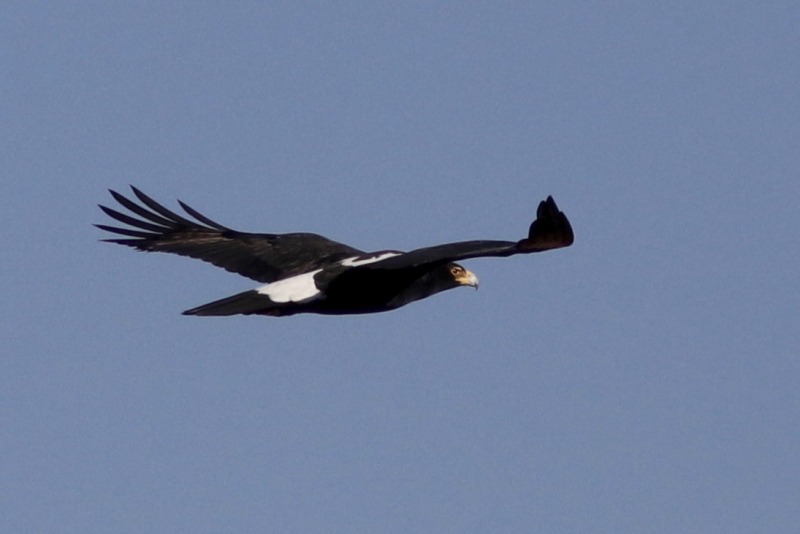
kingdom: Animalia
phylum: Chordata
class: Aves
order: Accipitriformes
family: Accipitridae
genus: Aquila
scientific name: Aquila verreauxii
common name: Verreaux's eagle
